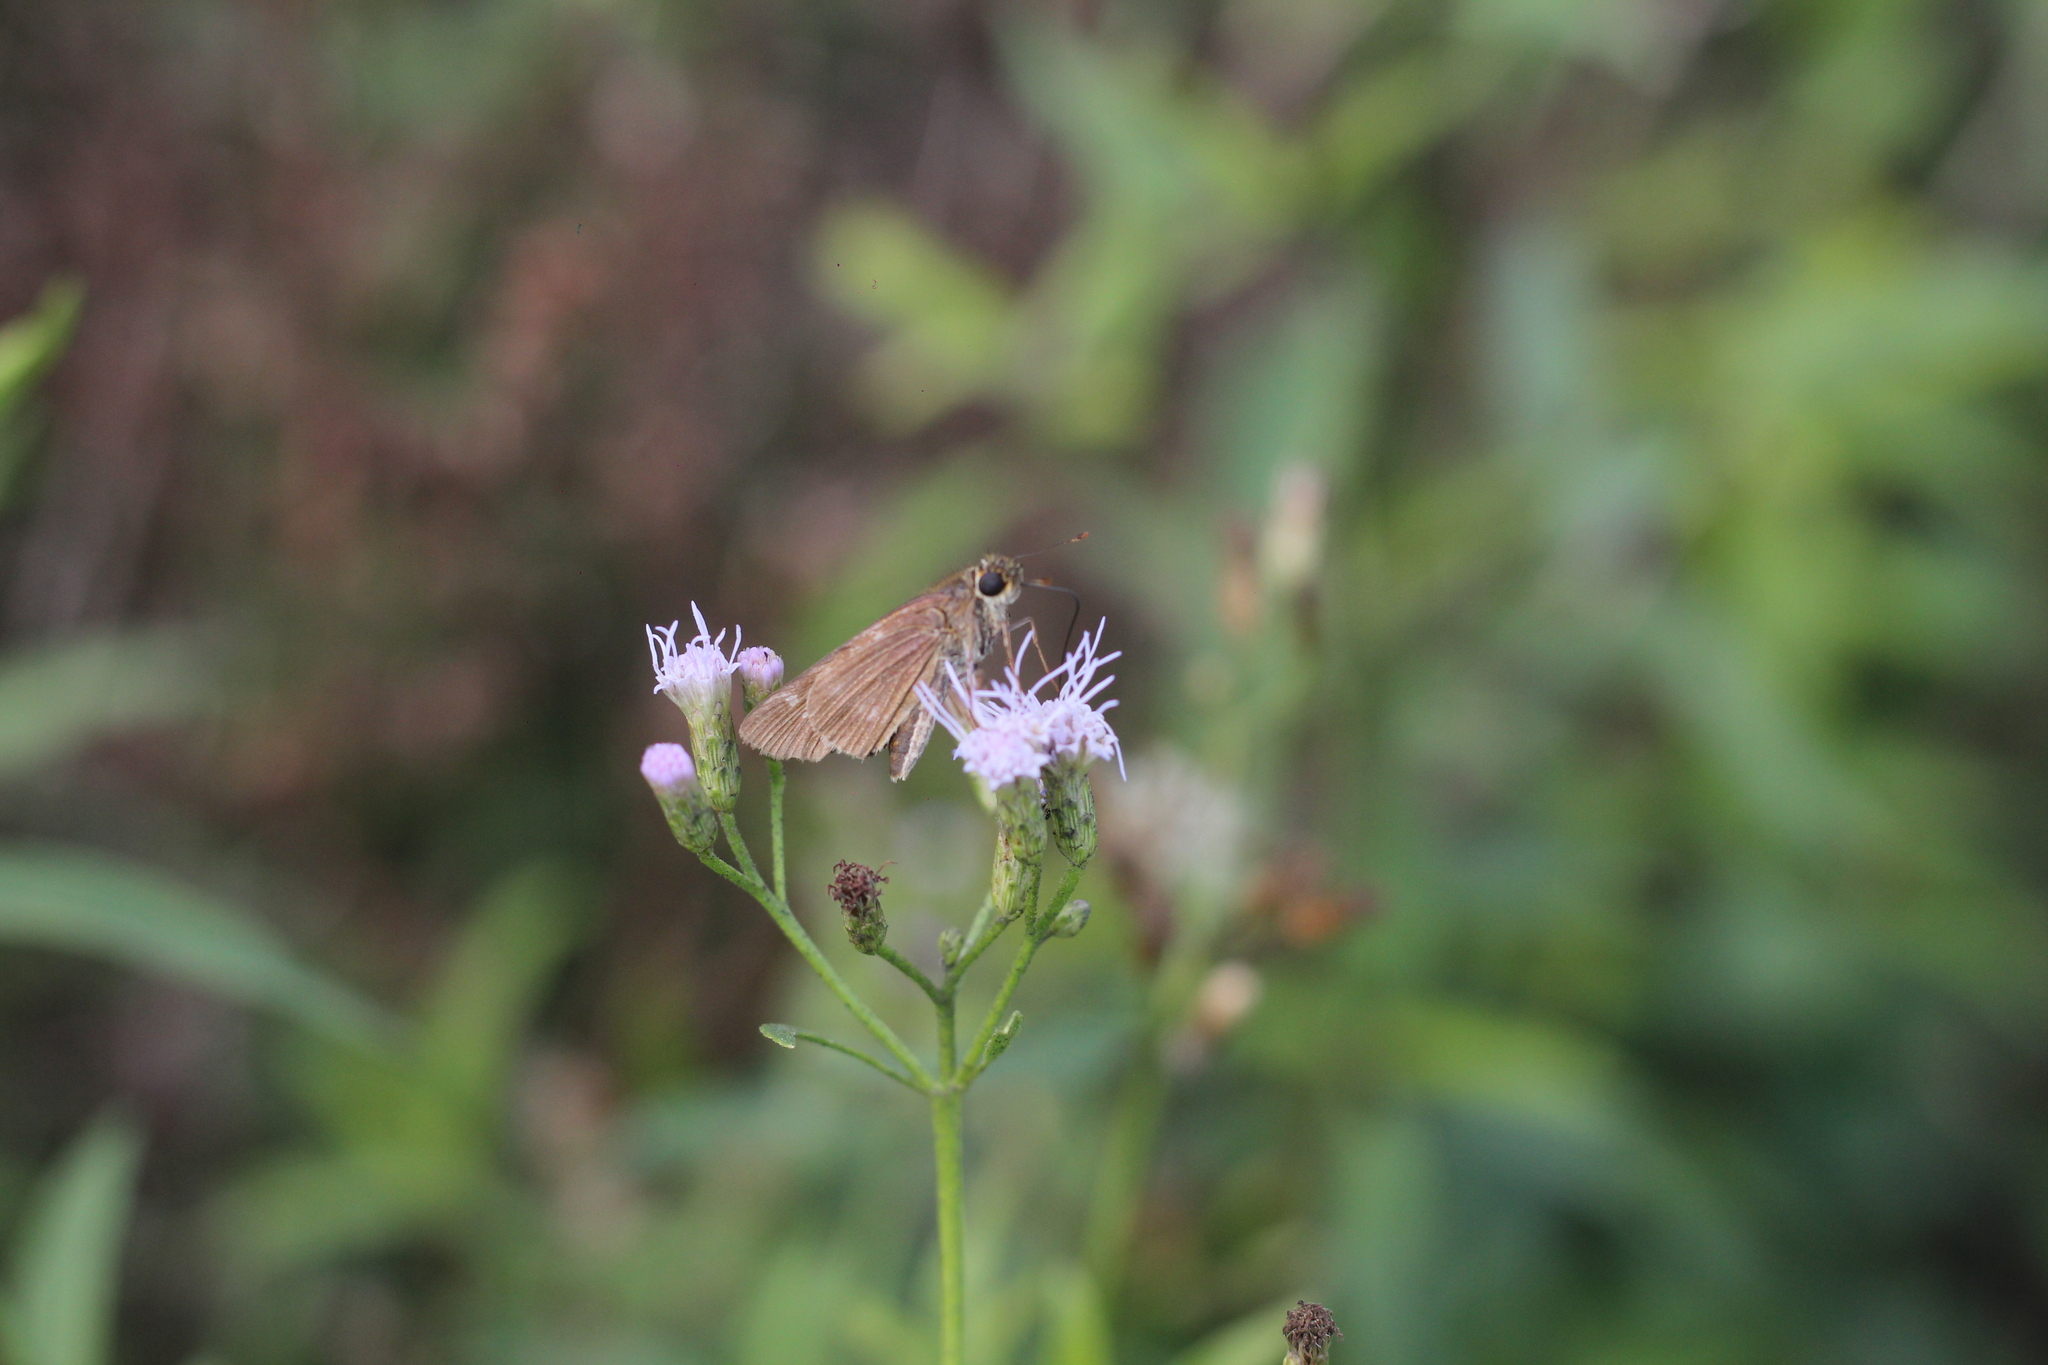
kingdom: Animalia
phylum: Arthropoda
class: Insecta
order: Lepidoptera
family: Hesperiidae
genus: Panoquina
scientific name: Panoquina ocola
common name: Ocola skipper
